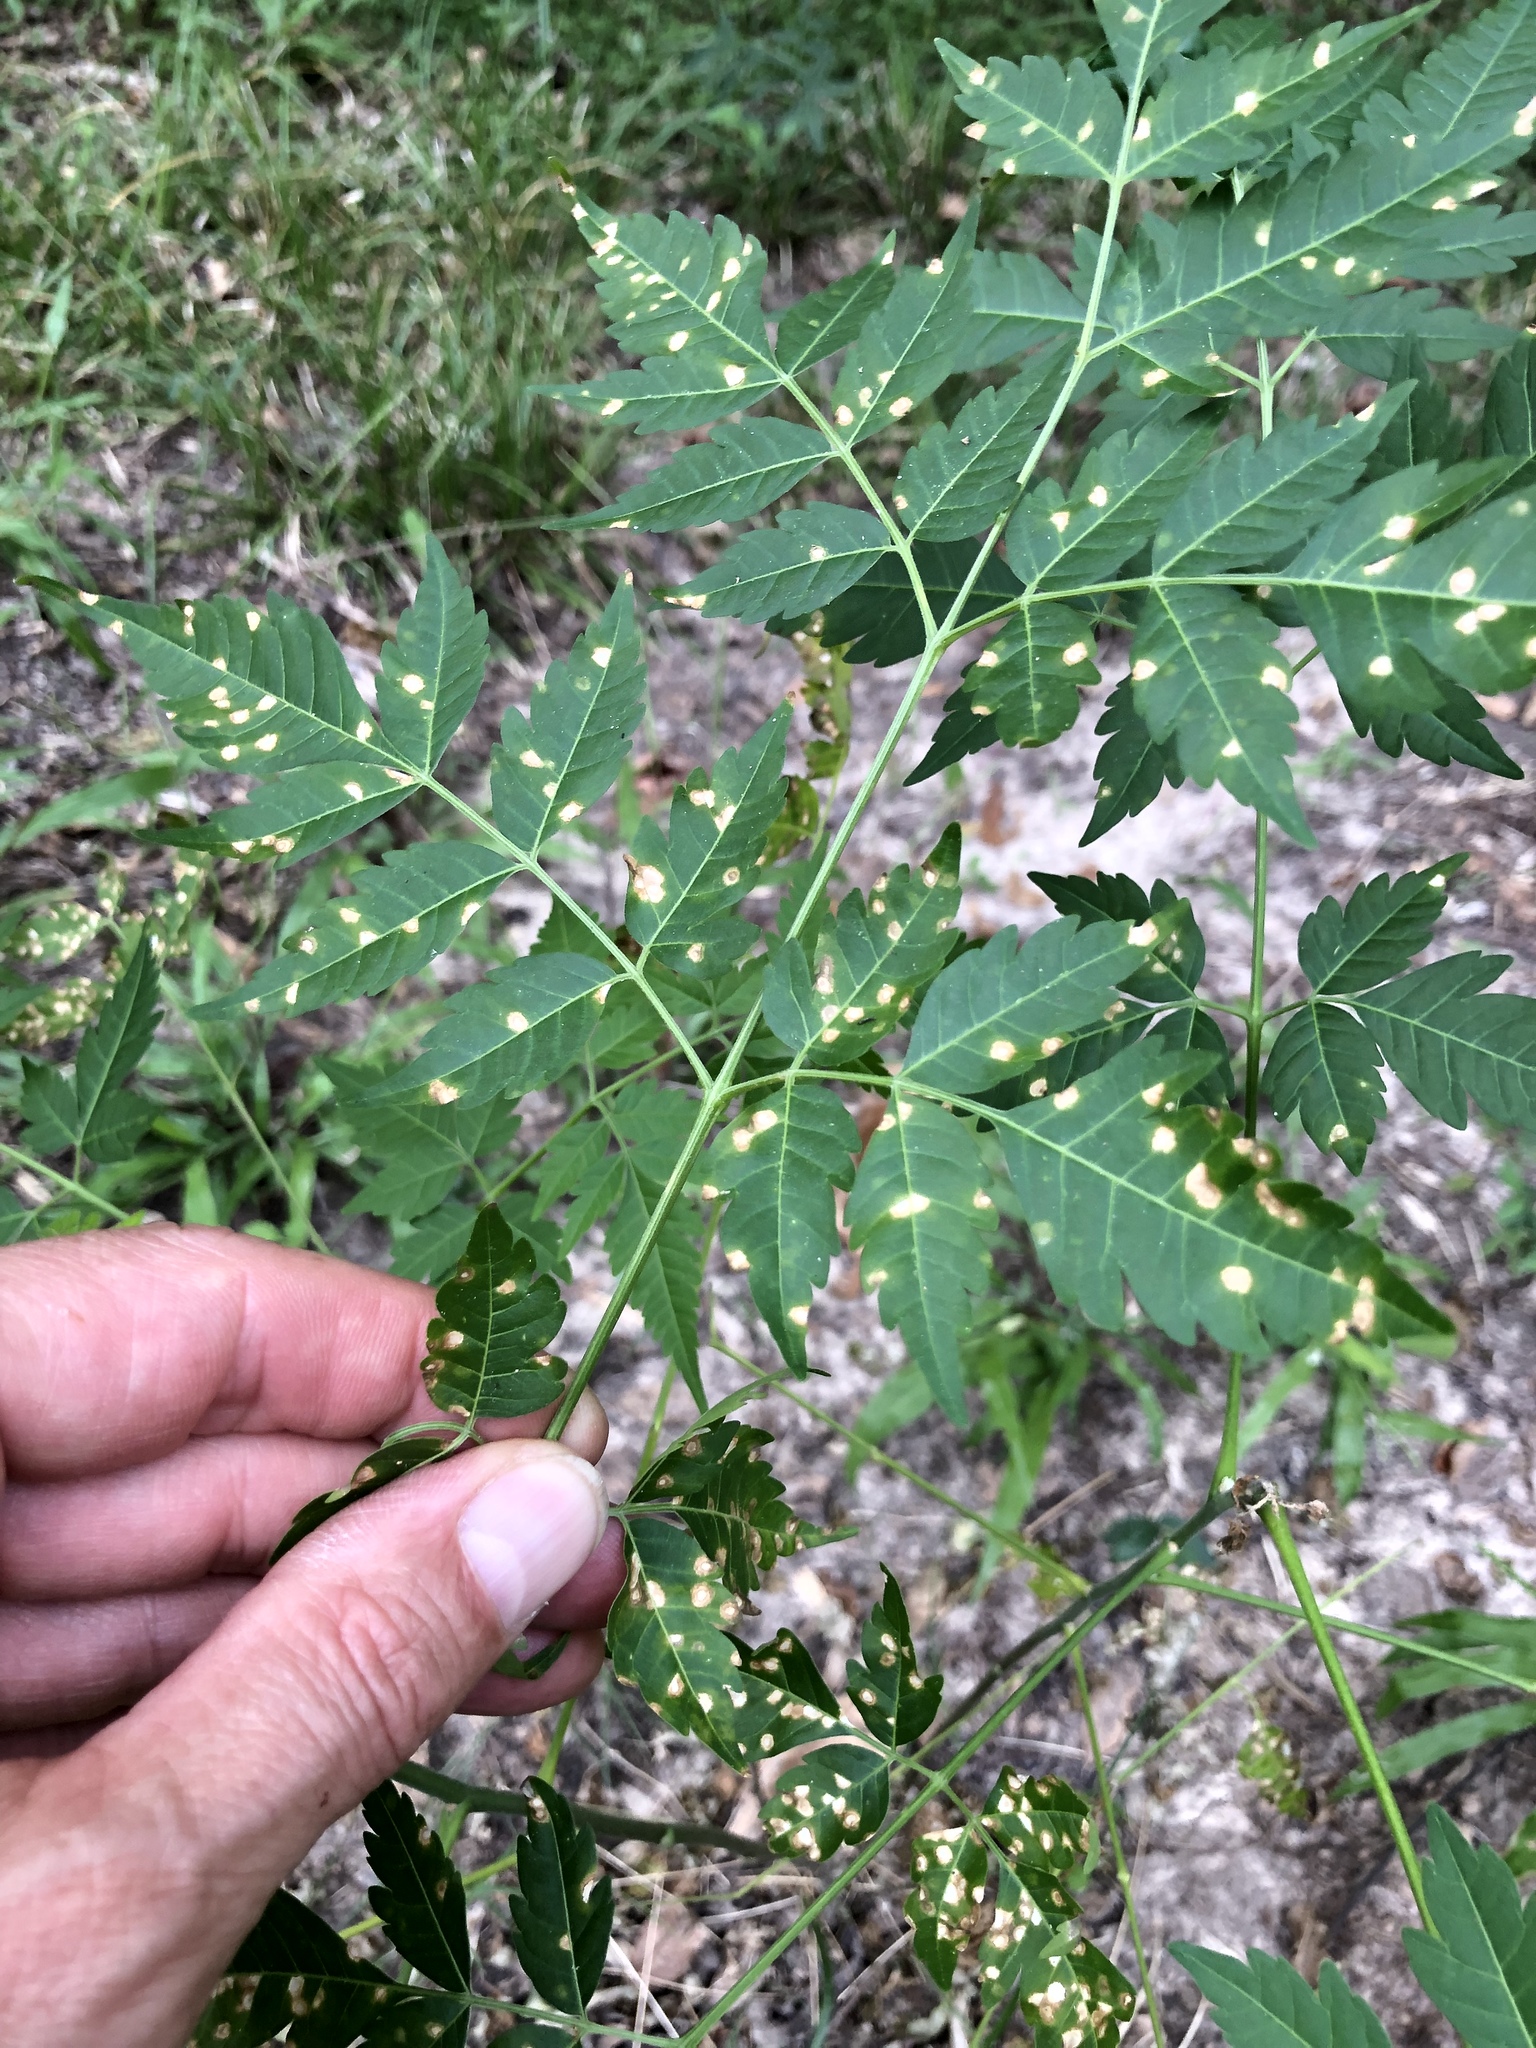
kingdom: Fungi
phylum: Ascomycota
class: Dothideomycetes
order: Mycosphaerellales
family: Mycosphaerellaceae
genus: Pseudocercospora
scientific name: Pseudocercospora subsessilis
